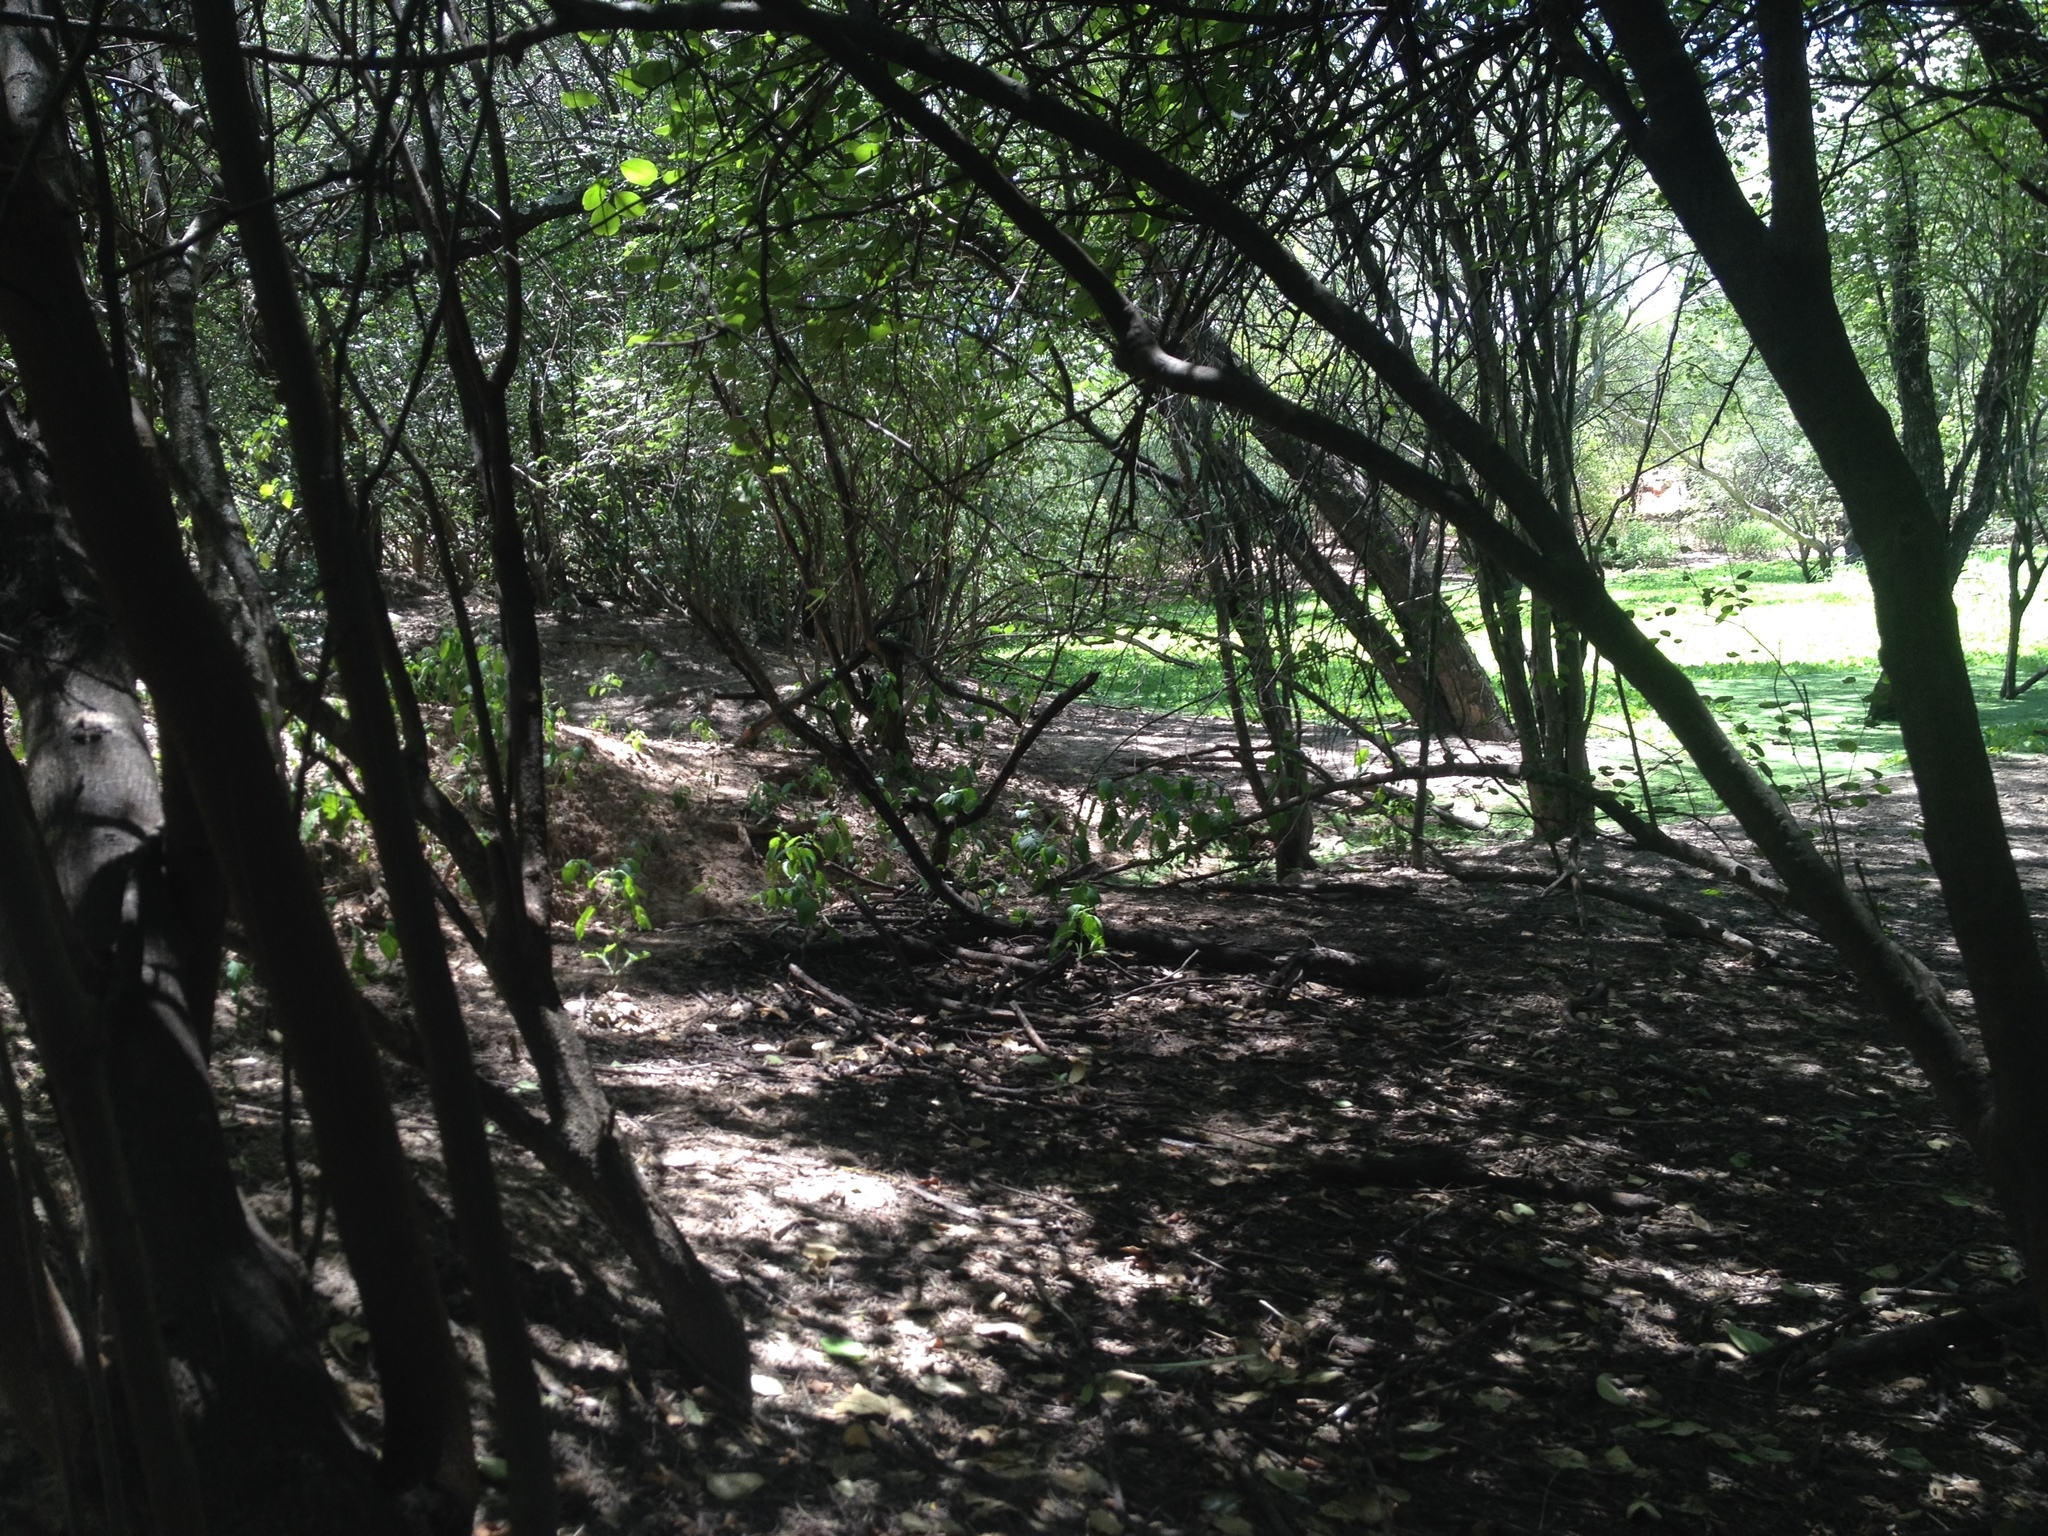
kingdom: Animalia
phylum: Chordata
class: Squamata
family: Tropiduridae
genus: Tropidurus
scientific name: Tropidurus spinulosus
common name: Spiny lava lizard
